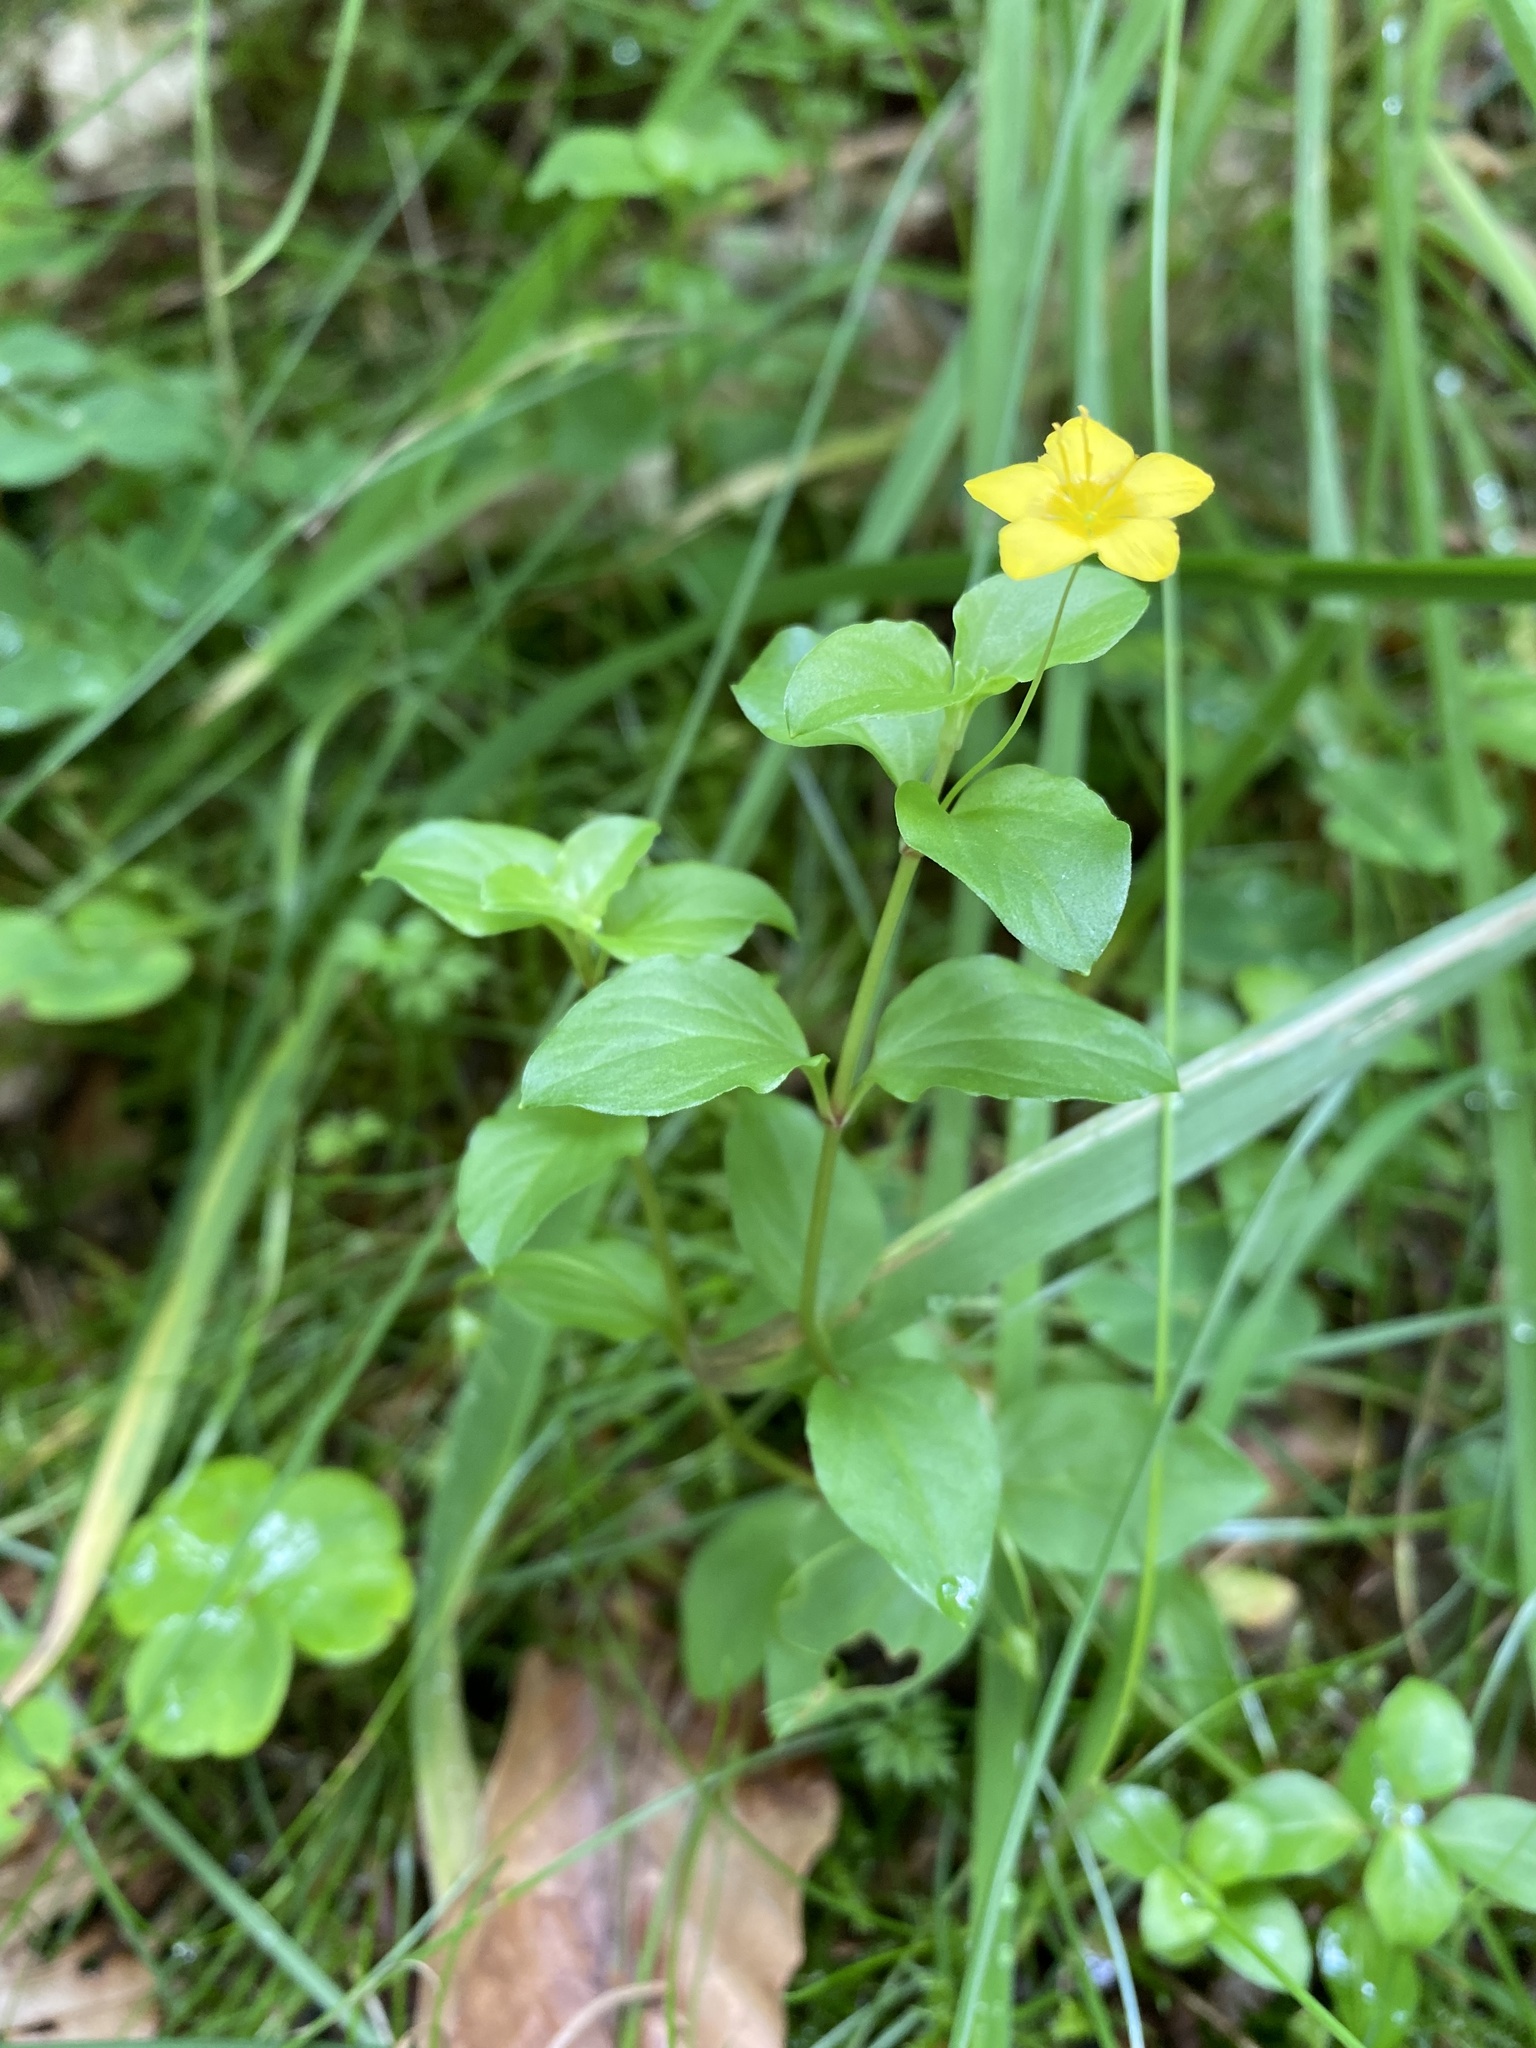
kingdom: Plantae
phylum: Tracheophyta
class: Magnoliopsida
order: Ericales
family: Primulaceae
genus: Lysimachia
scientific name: Lysimachia nemorum
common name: Yellow pimpernel
